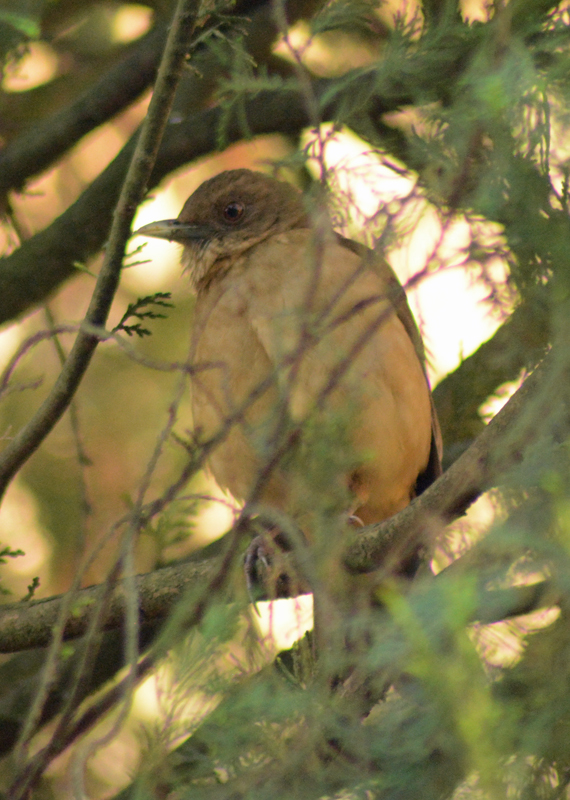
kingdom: Animalia
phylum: Chordata
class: Aves
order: Passeriformes
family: Turdidae
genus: Turdus
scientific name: Turdus grayi
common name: Clay-colored thrush
